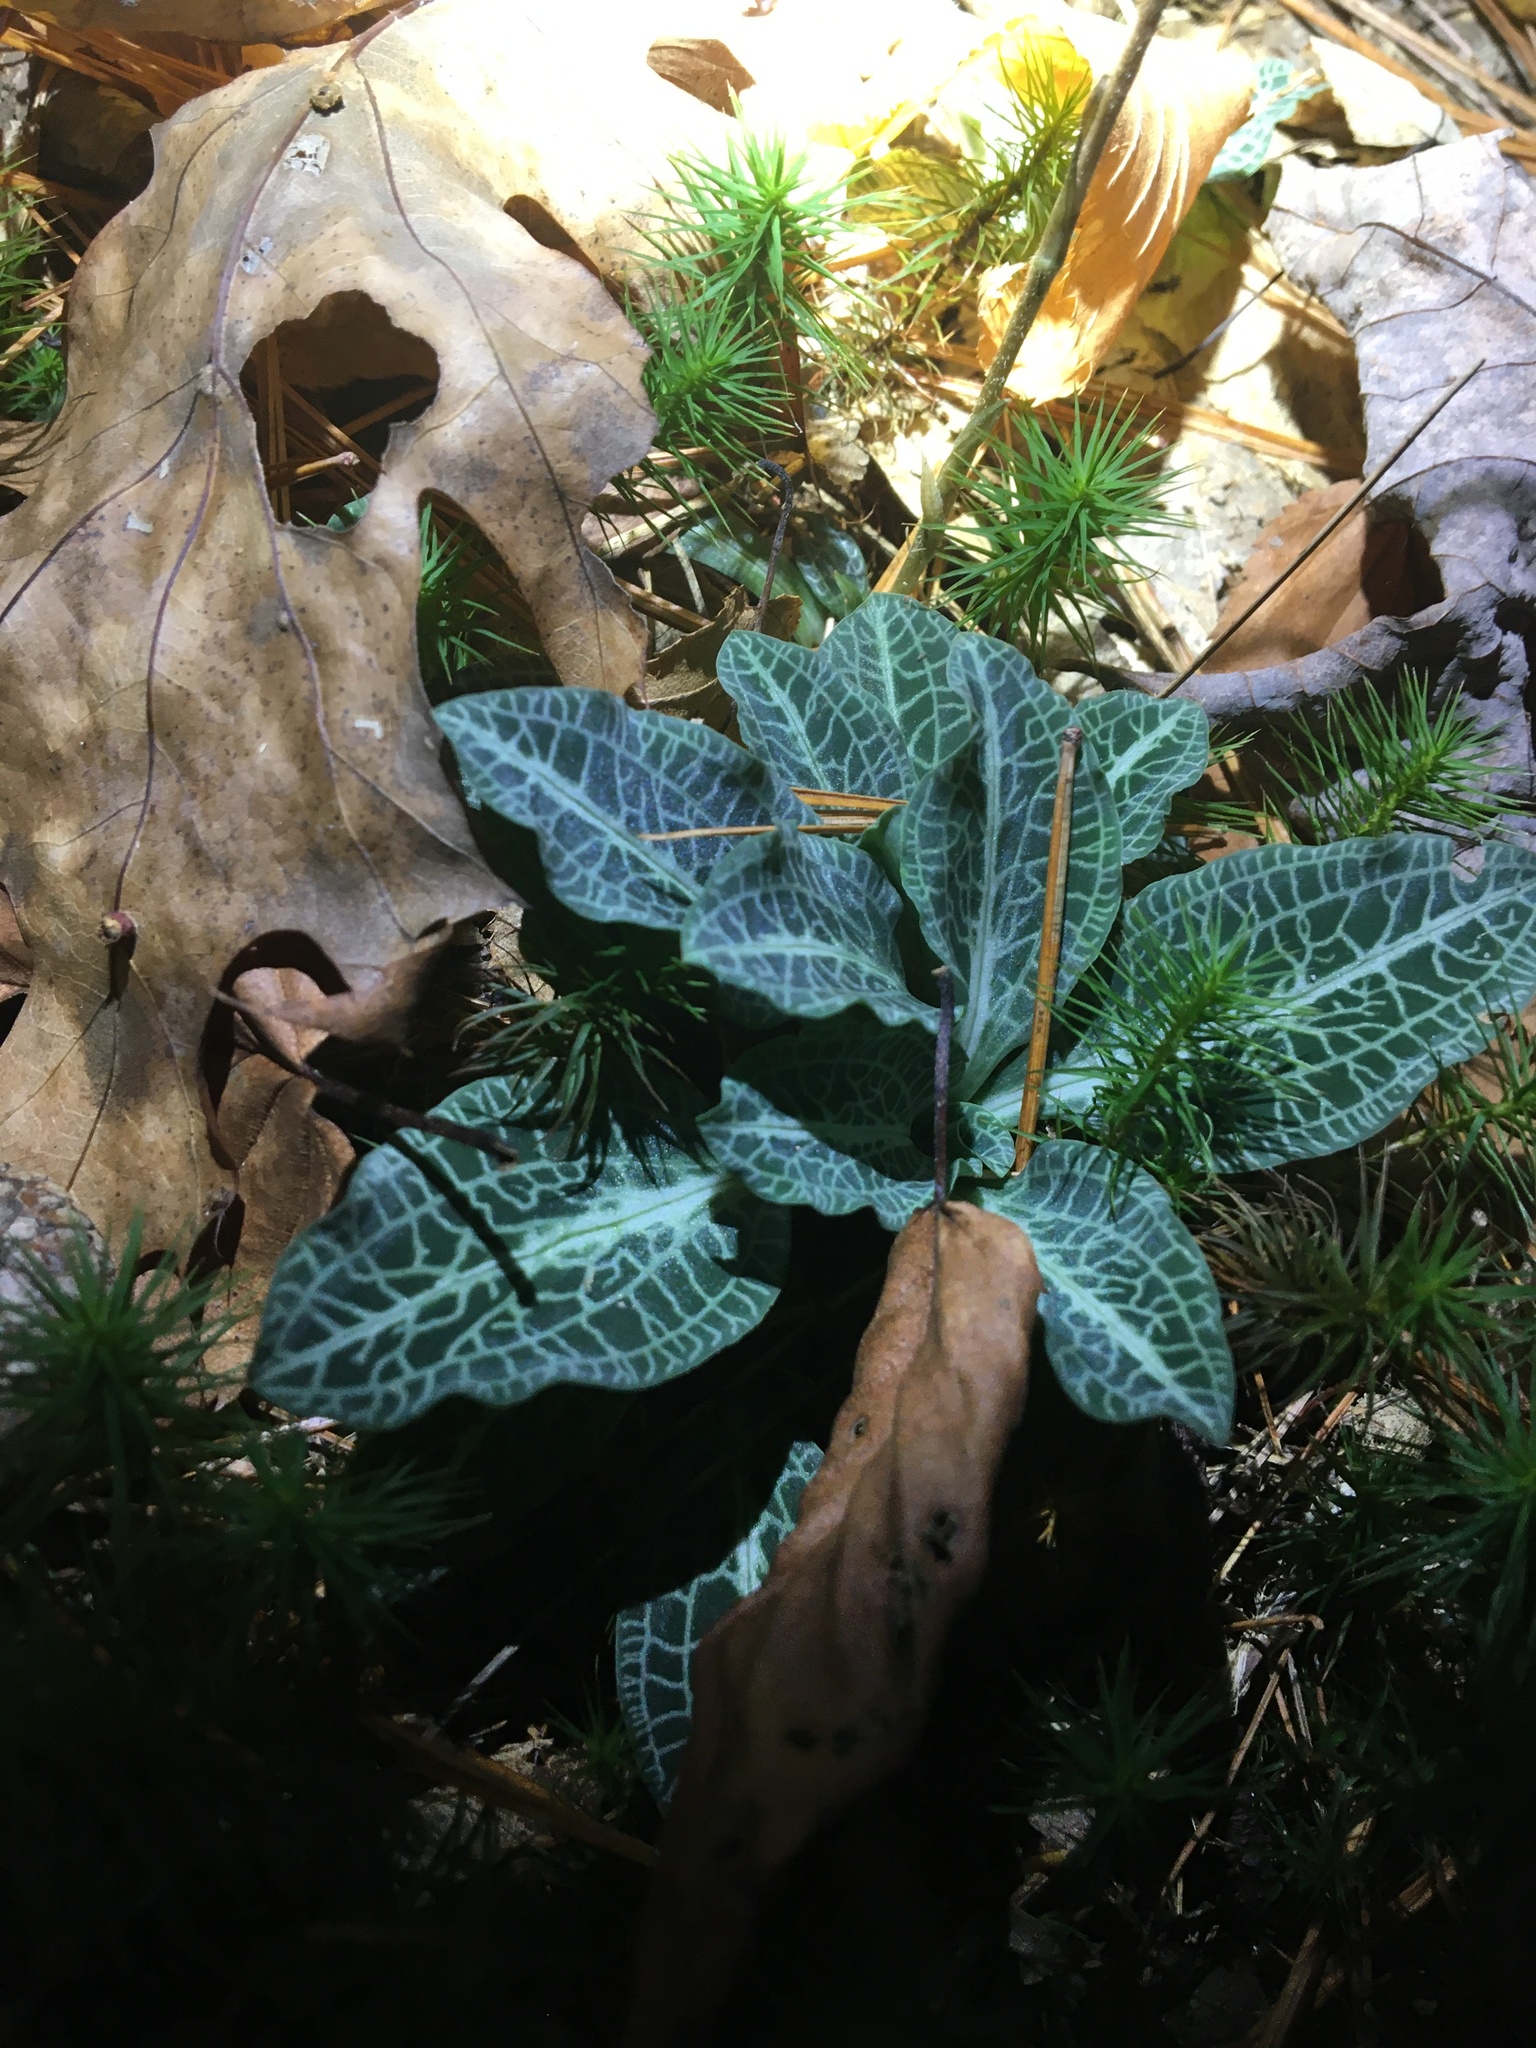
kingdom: Plantae
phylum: Tracheophyta
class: Liliopsida
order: Asparagales
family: Orchidaceae
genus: Goodyera
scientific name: Goodyera pubescens
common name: Downy rattlesnake-plantain
